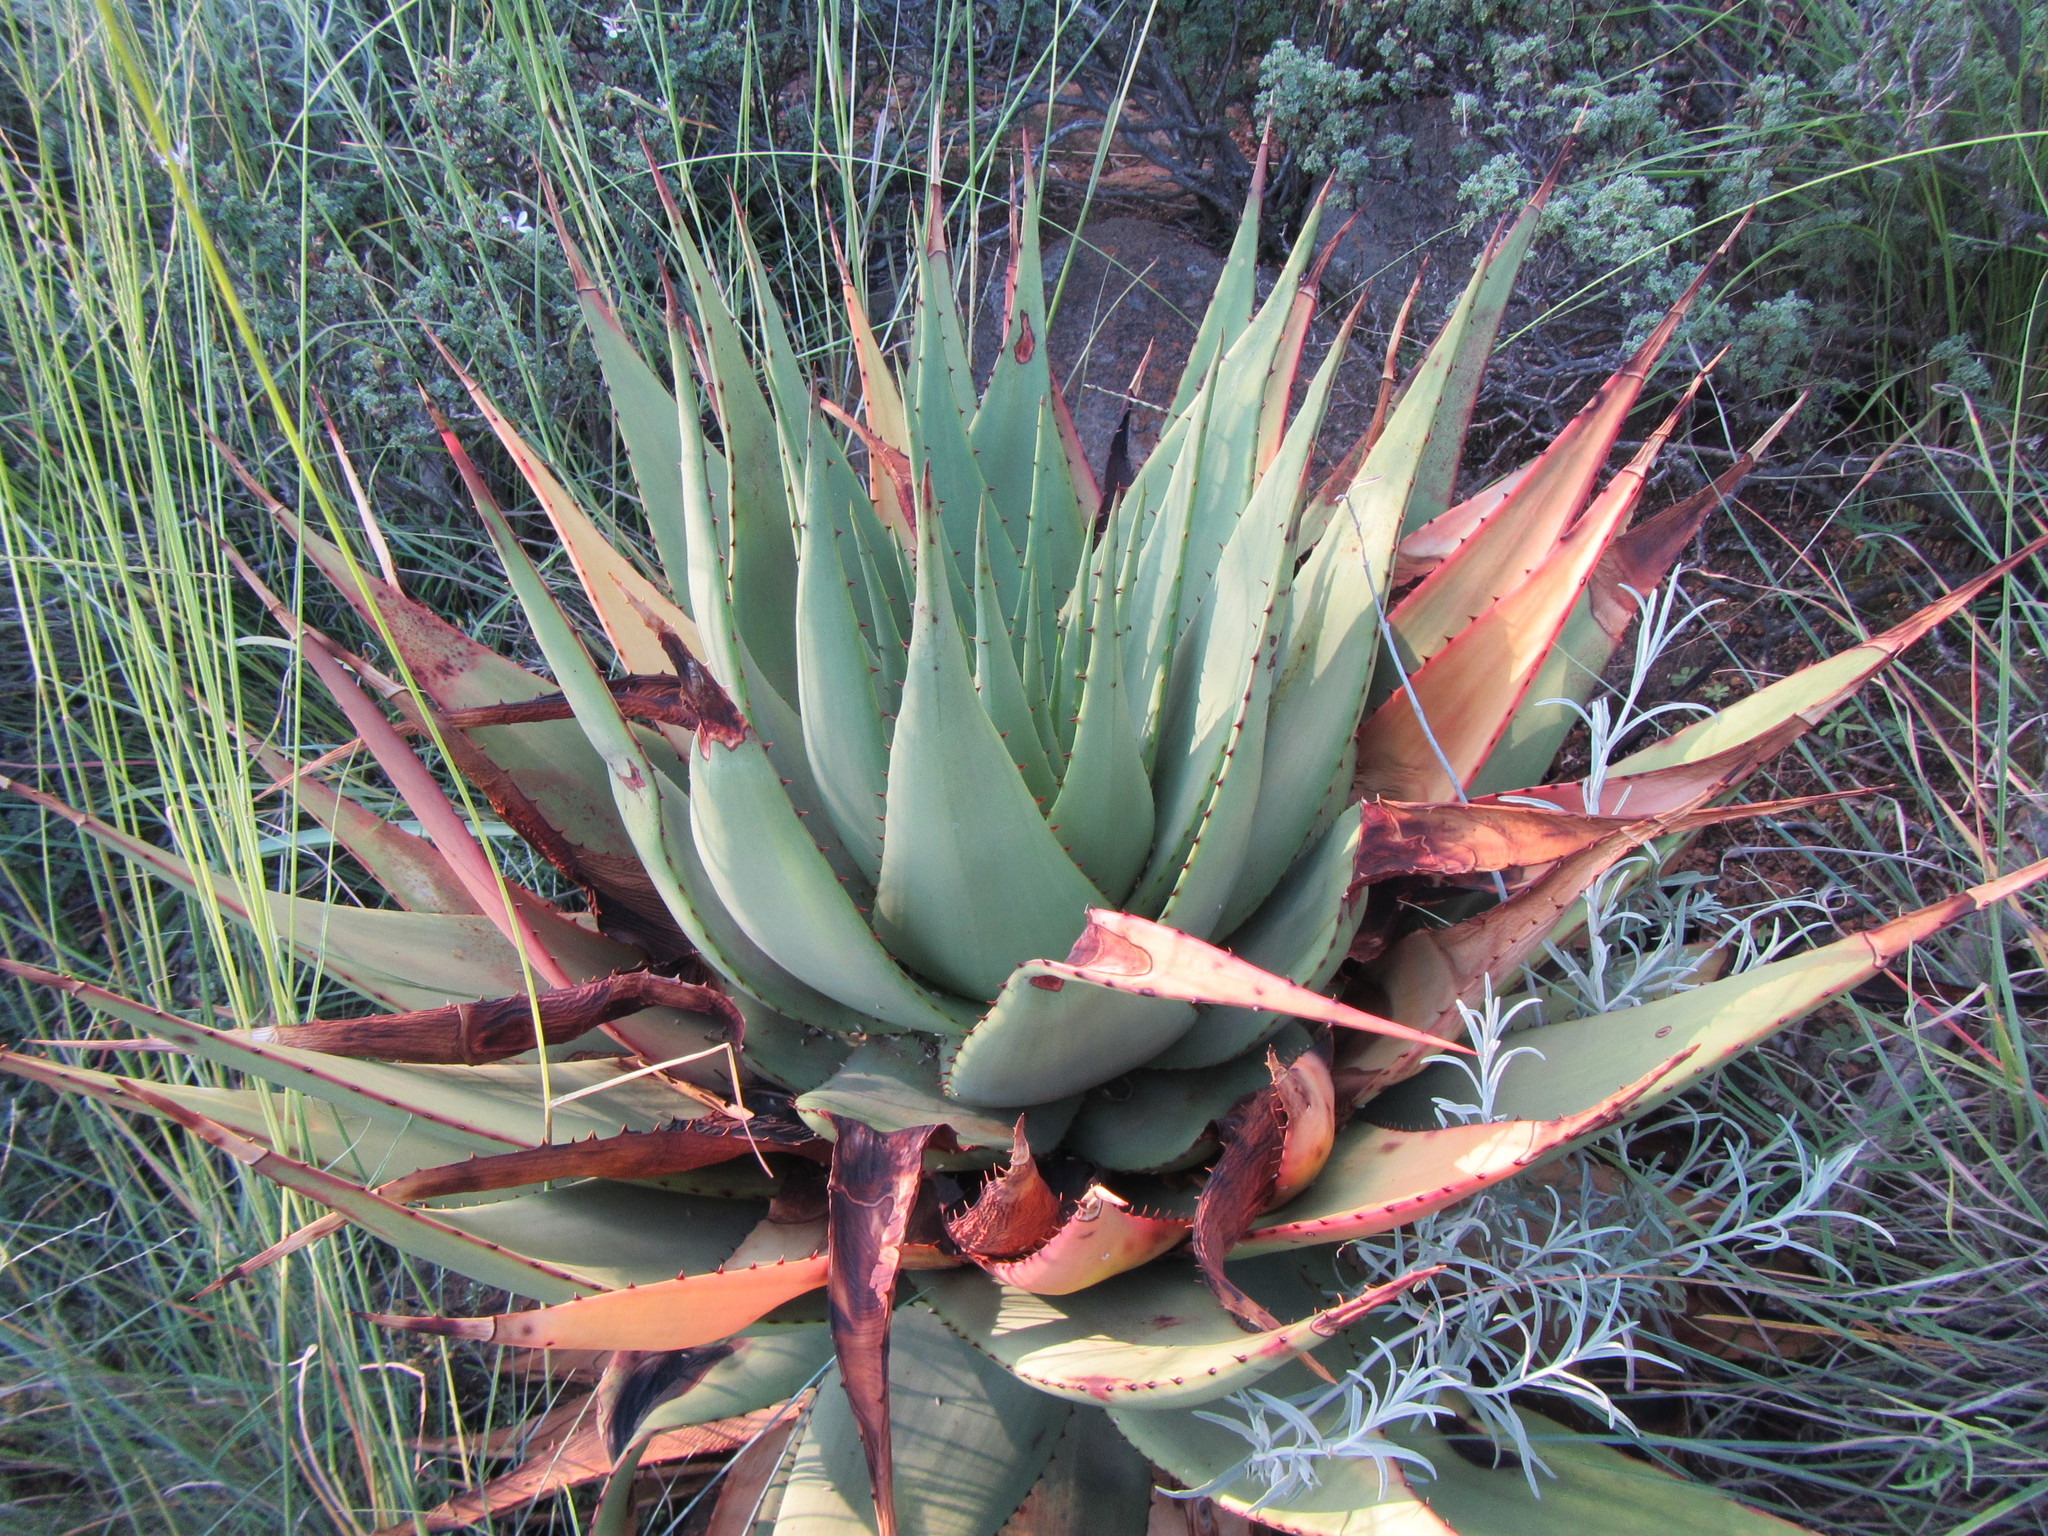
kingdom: Plantae
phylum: Tracheophyta
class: Liliopsida
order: Asparagales
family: Asphodelaceae
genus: Aloe
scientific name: Aloe broomii
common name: Berg alwyn
